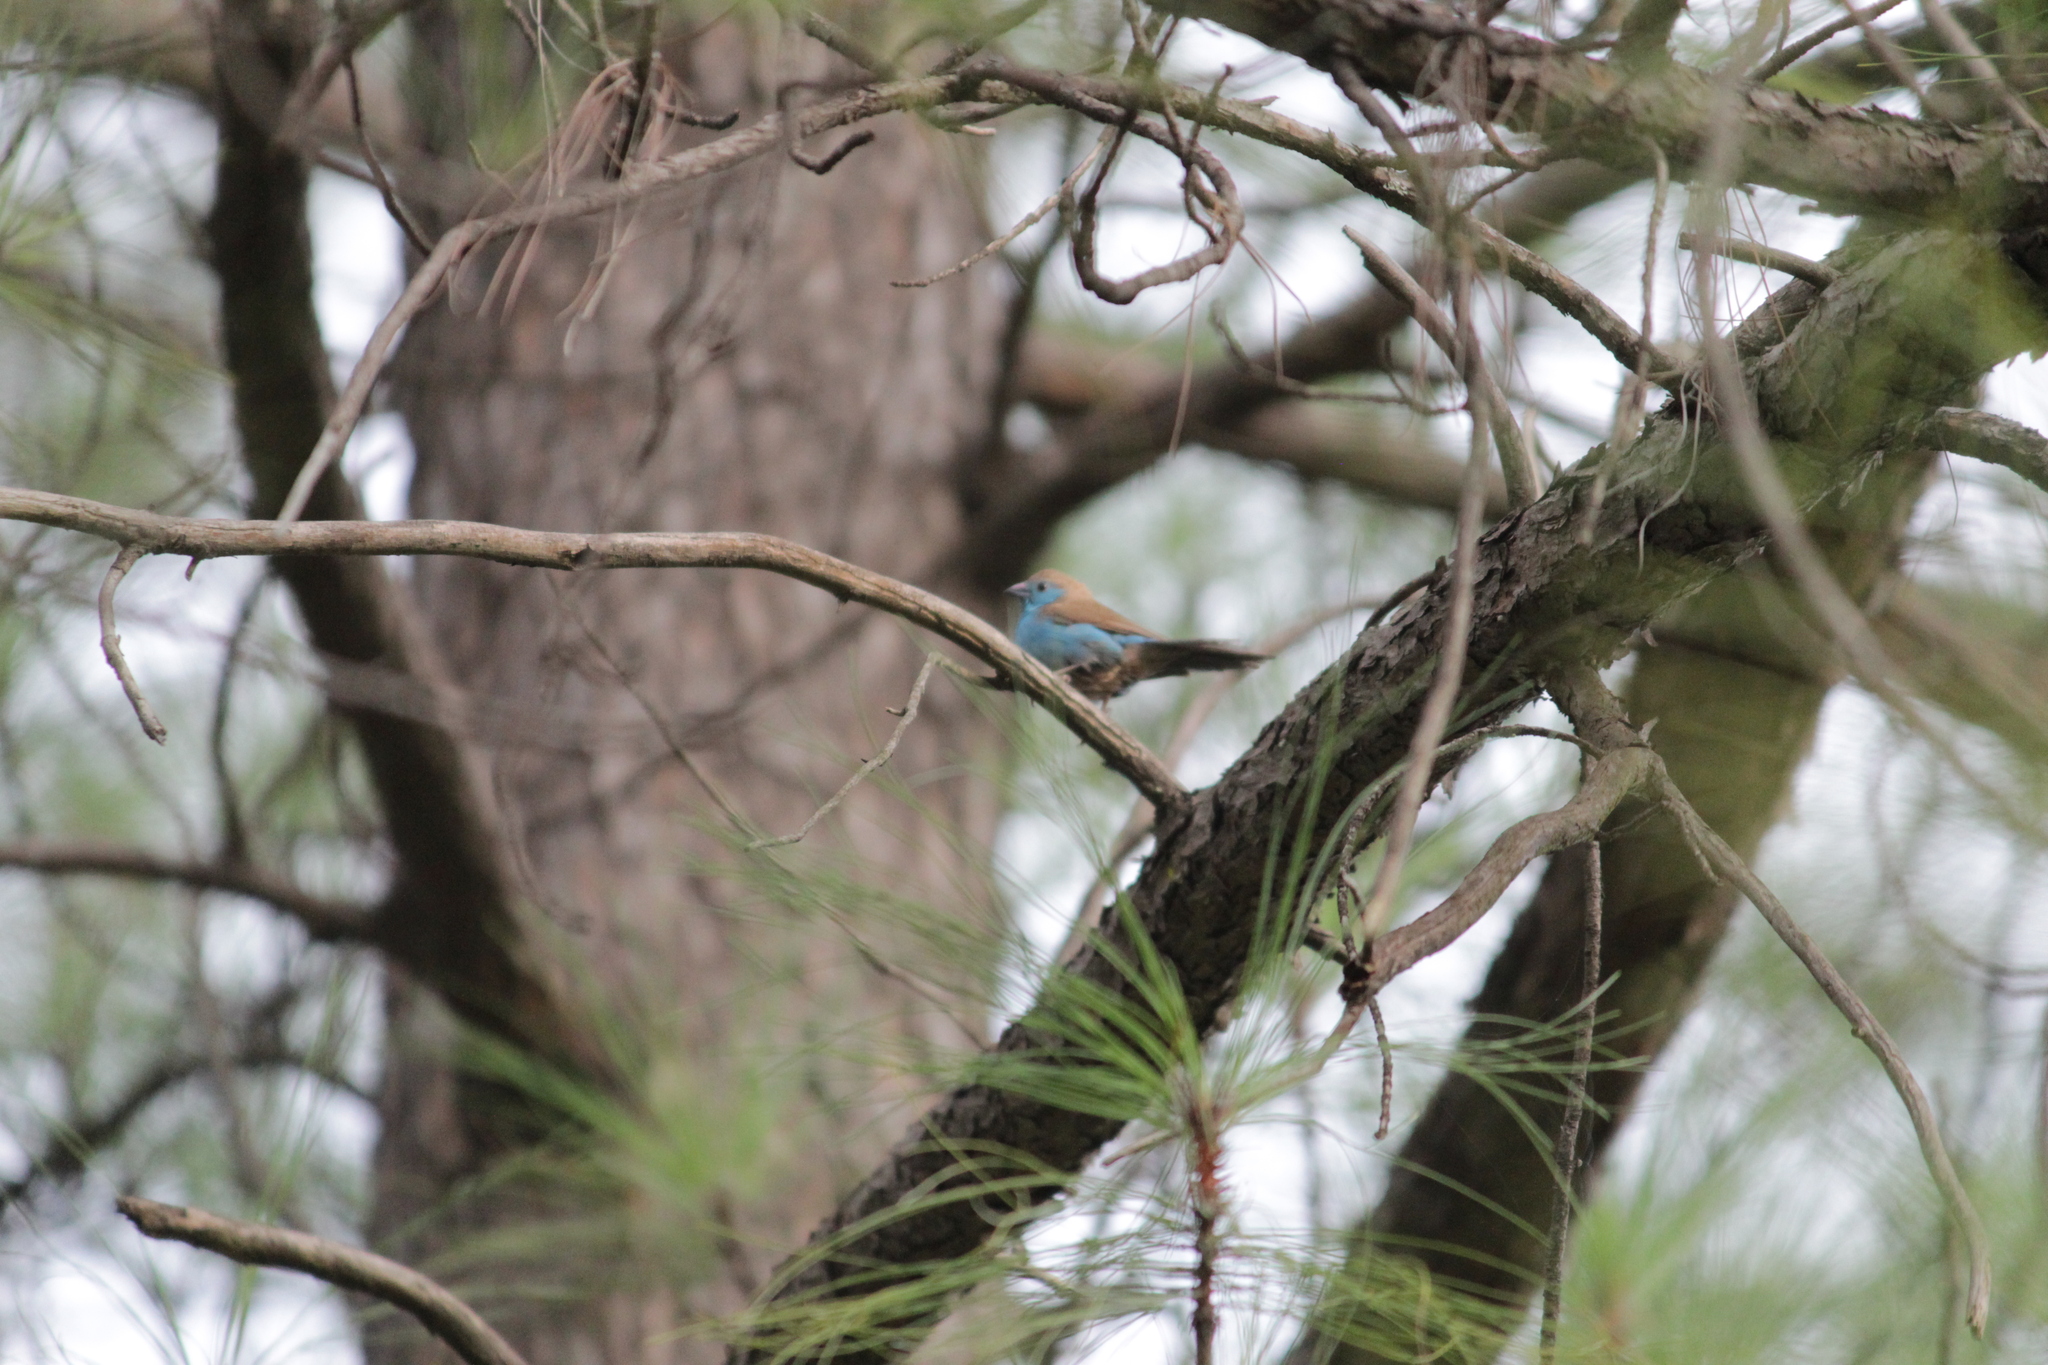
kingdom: Animalia
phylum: Chordata
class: Aves
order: Passeriformes
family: Estrildidae
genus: Uraeginthus
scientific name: Uraeginthus angolensis
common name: Blue waxbill
